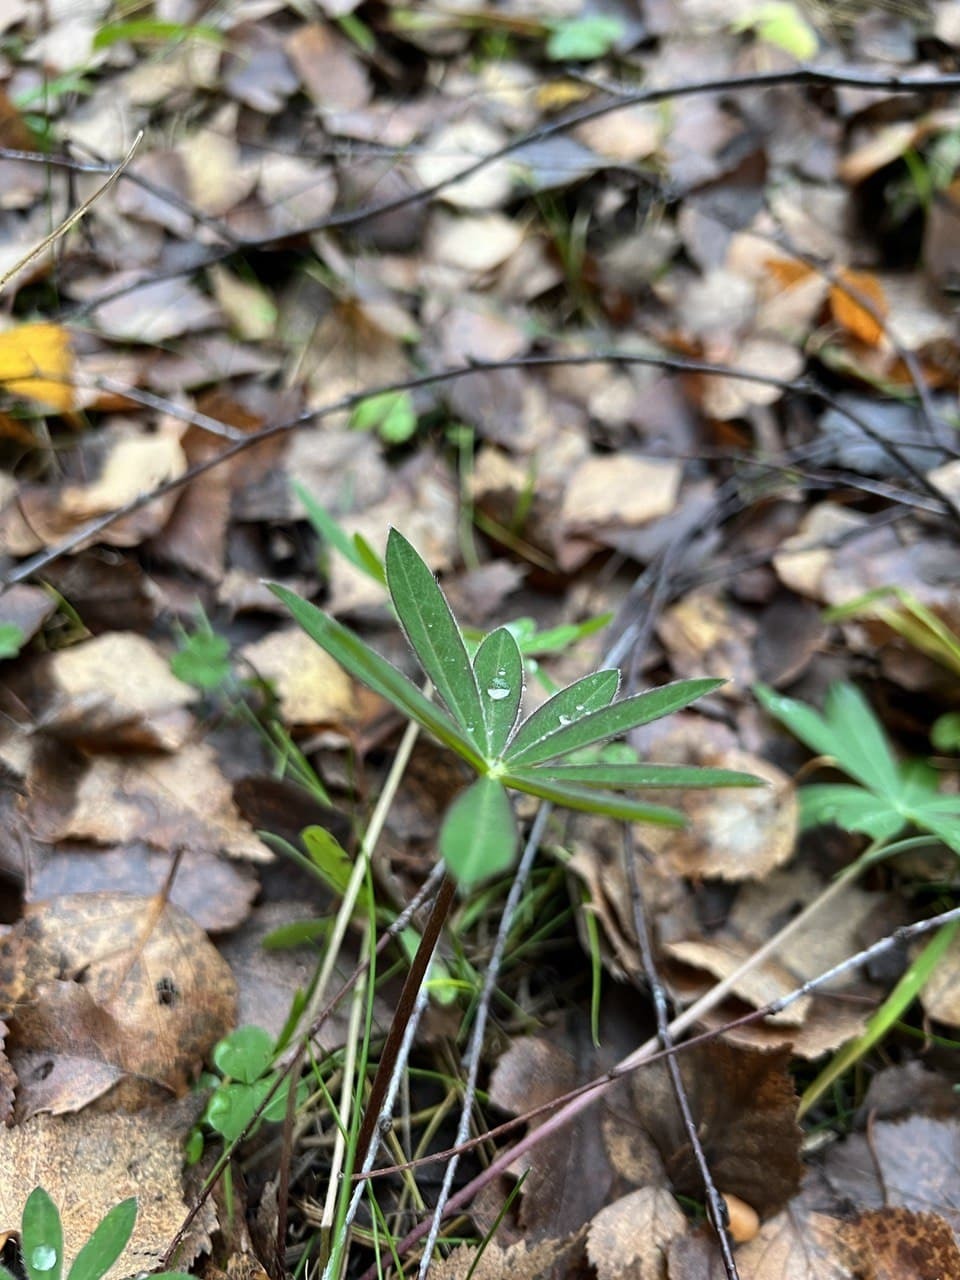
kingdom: Plantae
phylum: Tracheophyta
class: Magnoliopsida
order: Fabales
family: Fabaceae
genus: Lupinus
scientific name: Lupinus polyphyllus
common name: Garden lupin
